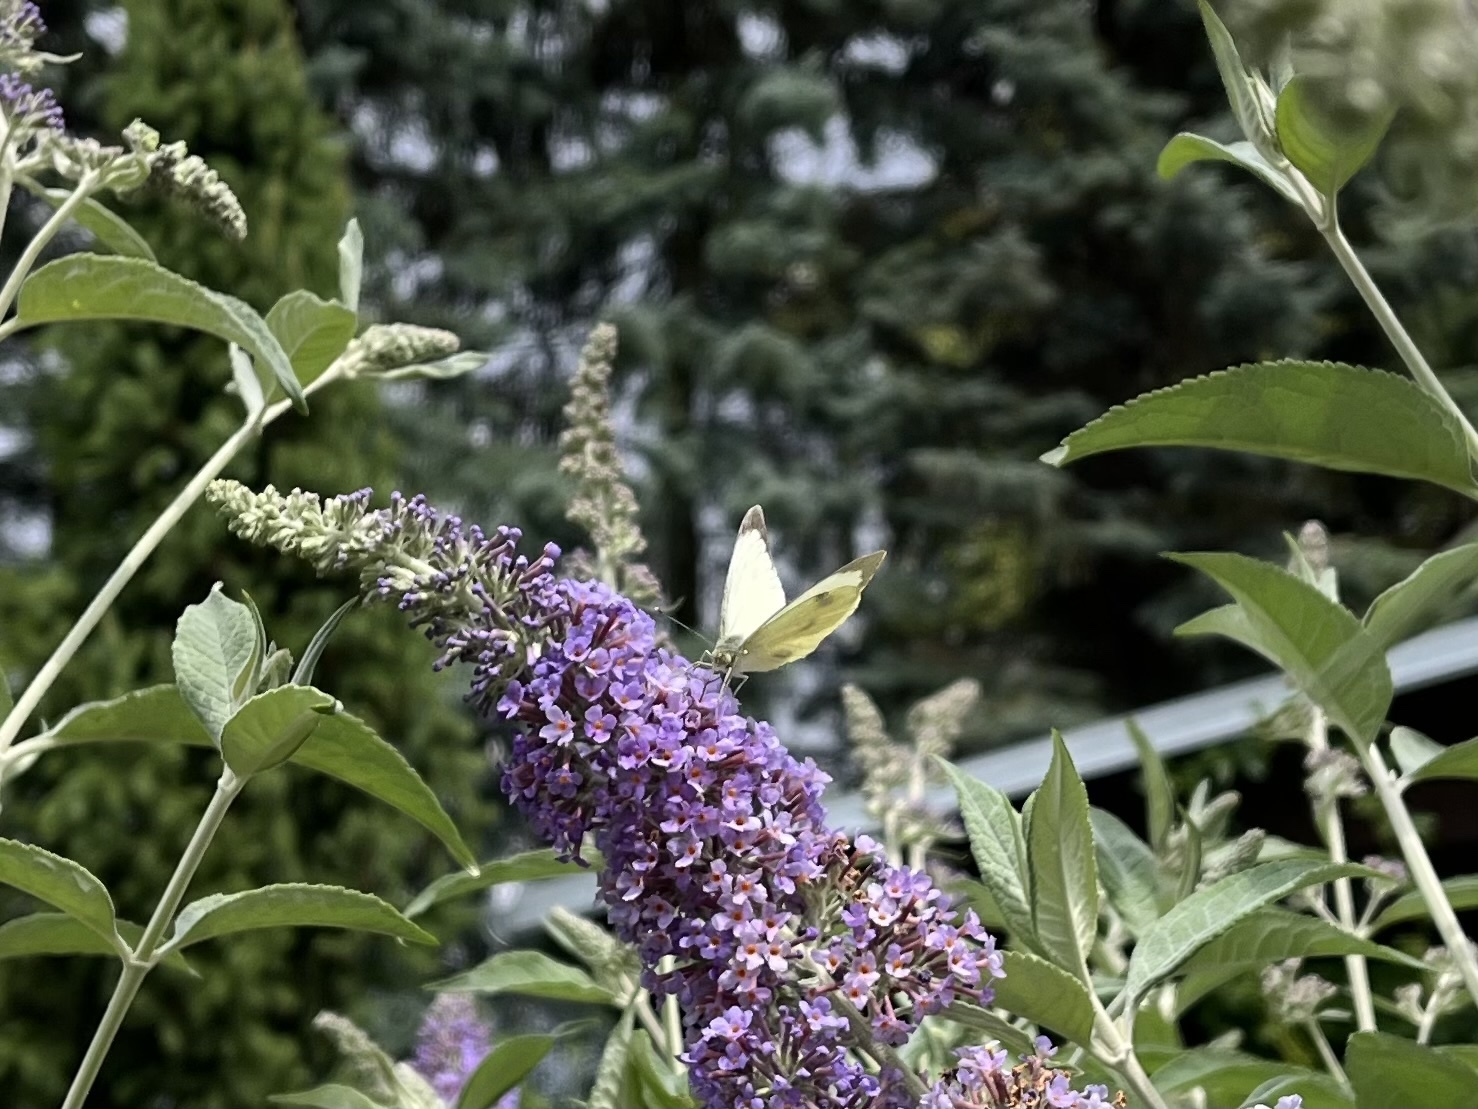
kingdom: Animalia
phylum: Arthropoda
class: Insecta
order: Lepidoptera
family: Pieridae
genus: Pieris
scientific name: Pieris brassicae
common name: Large white
